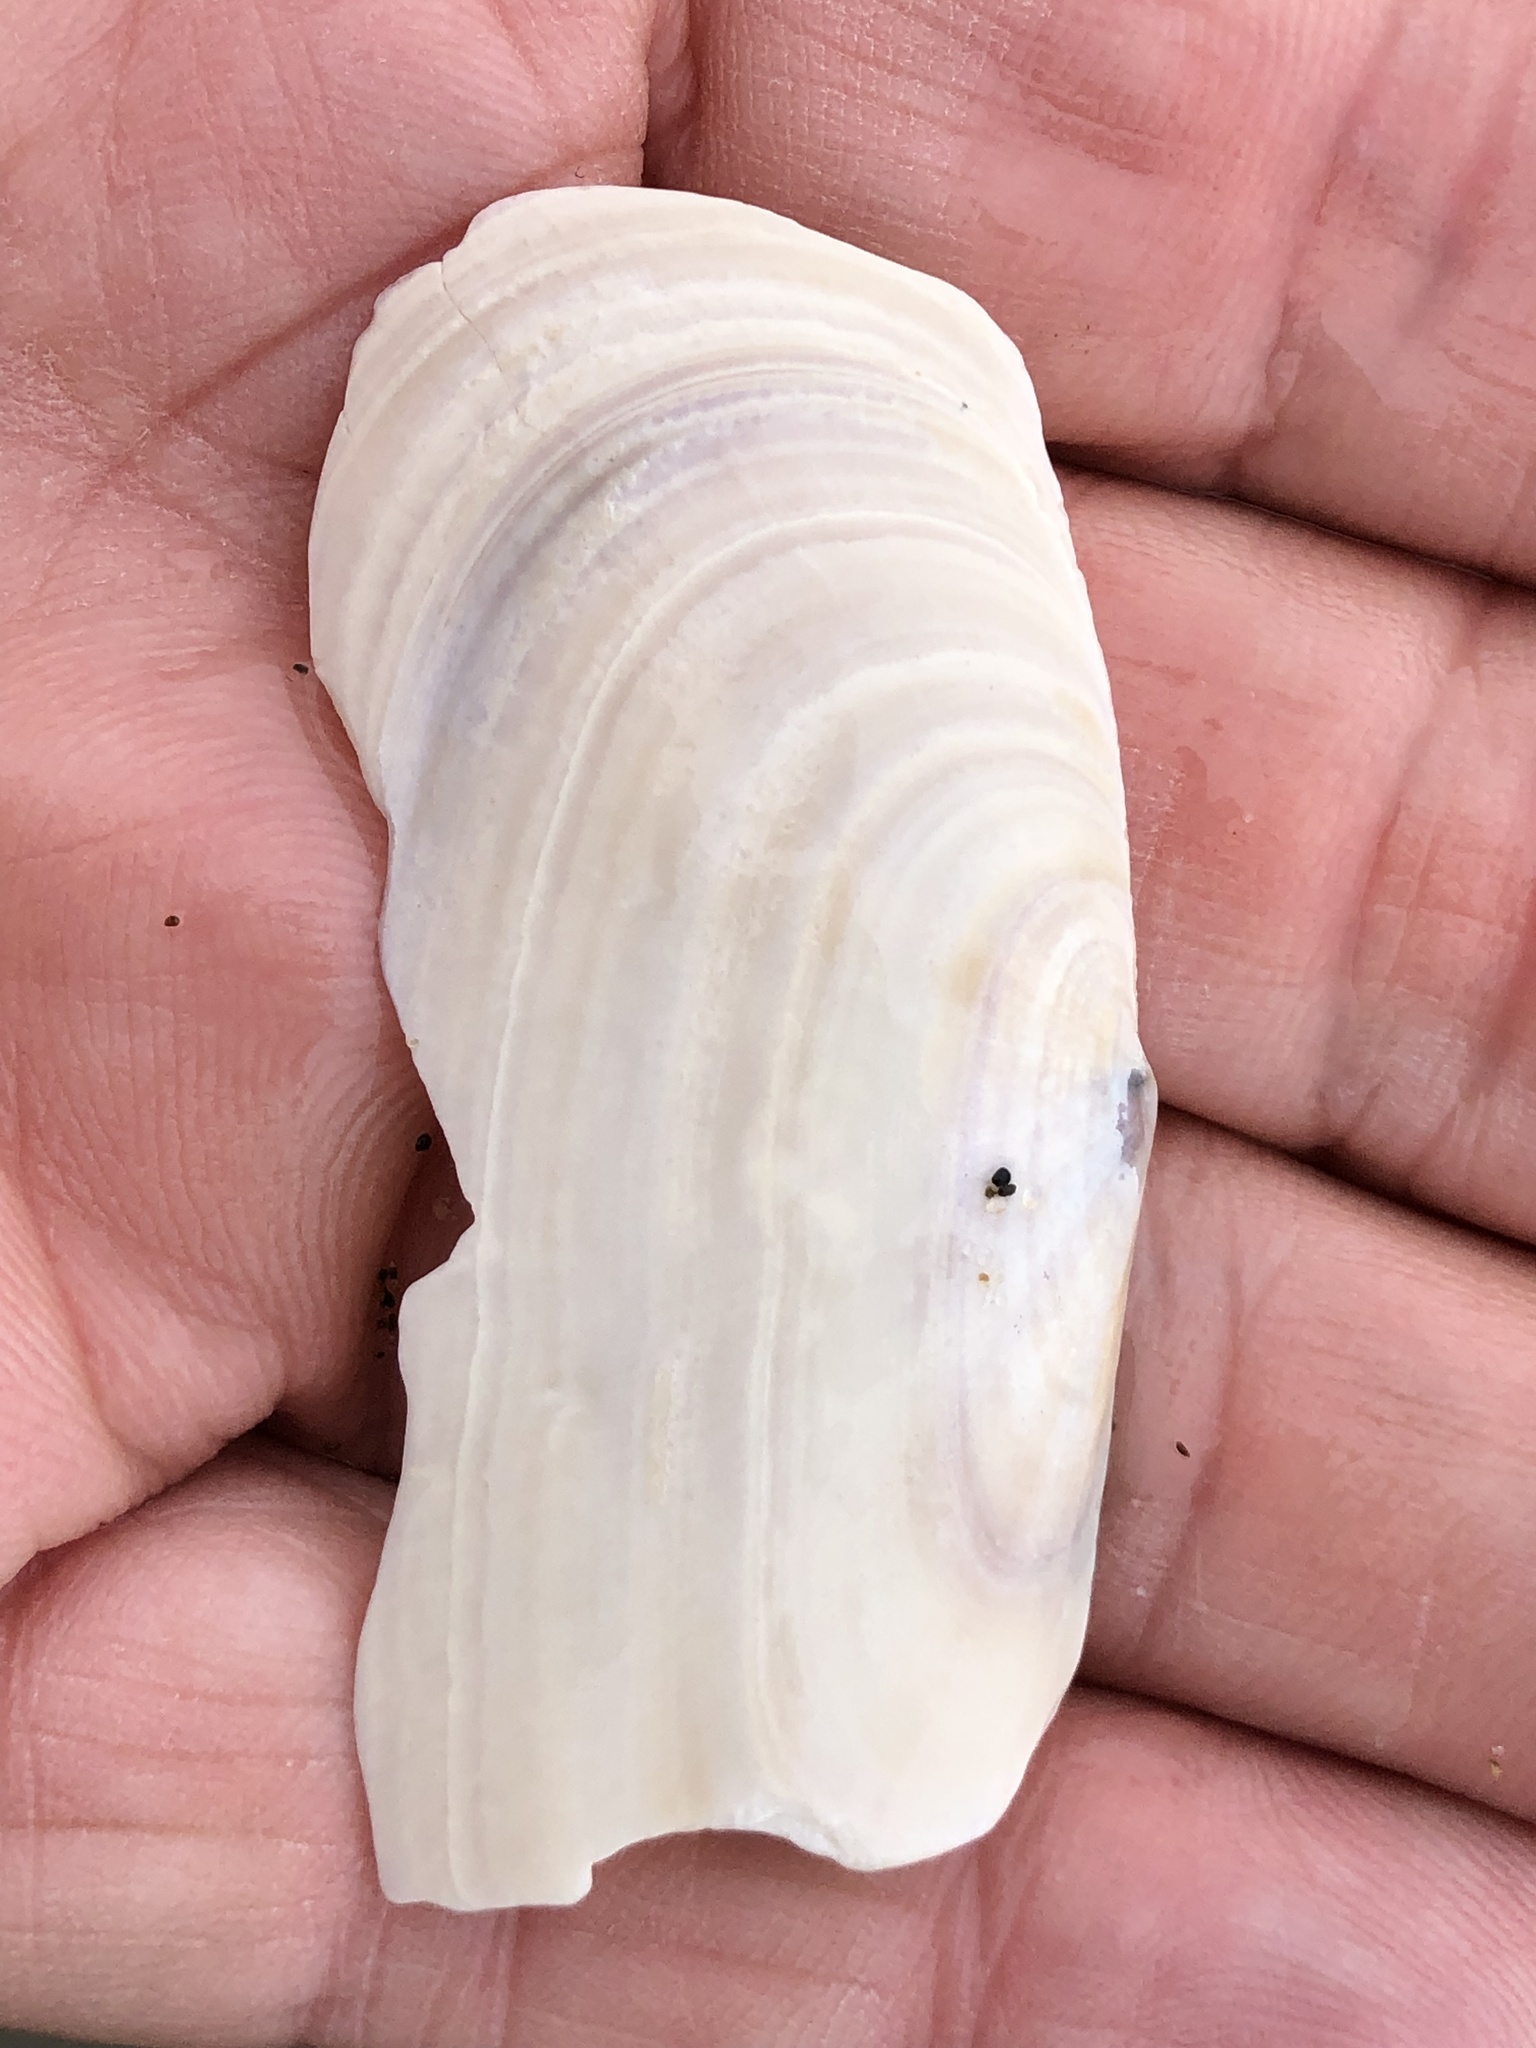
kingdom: Animalia
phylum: Mollusca
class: Bivalvia
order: Adapedonta
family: Pharidae
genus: Siliqua
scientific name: Siliqua patula
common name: Pacific razor clam
